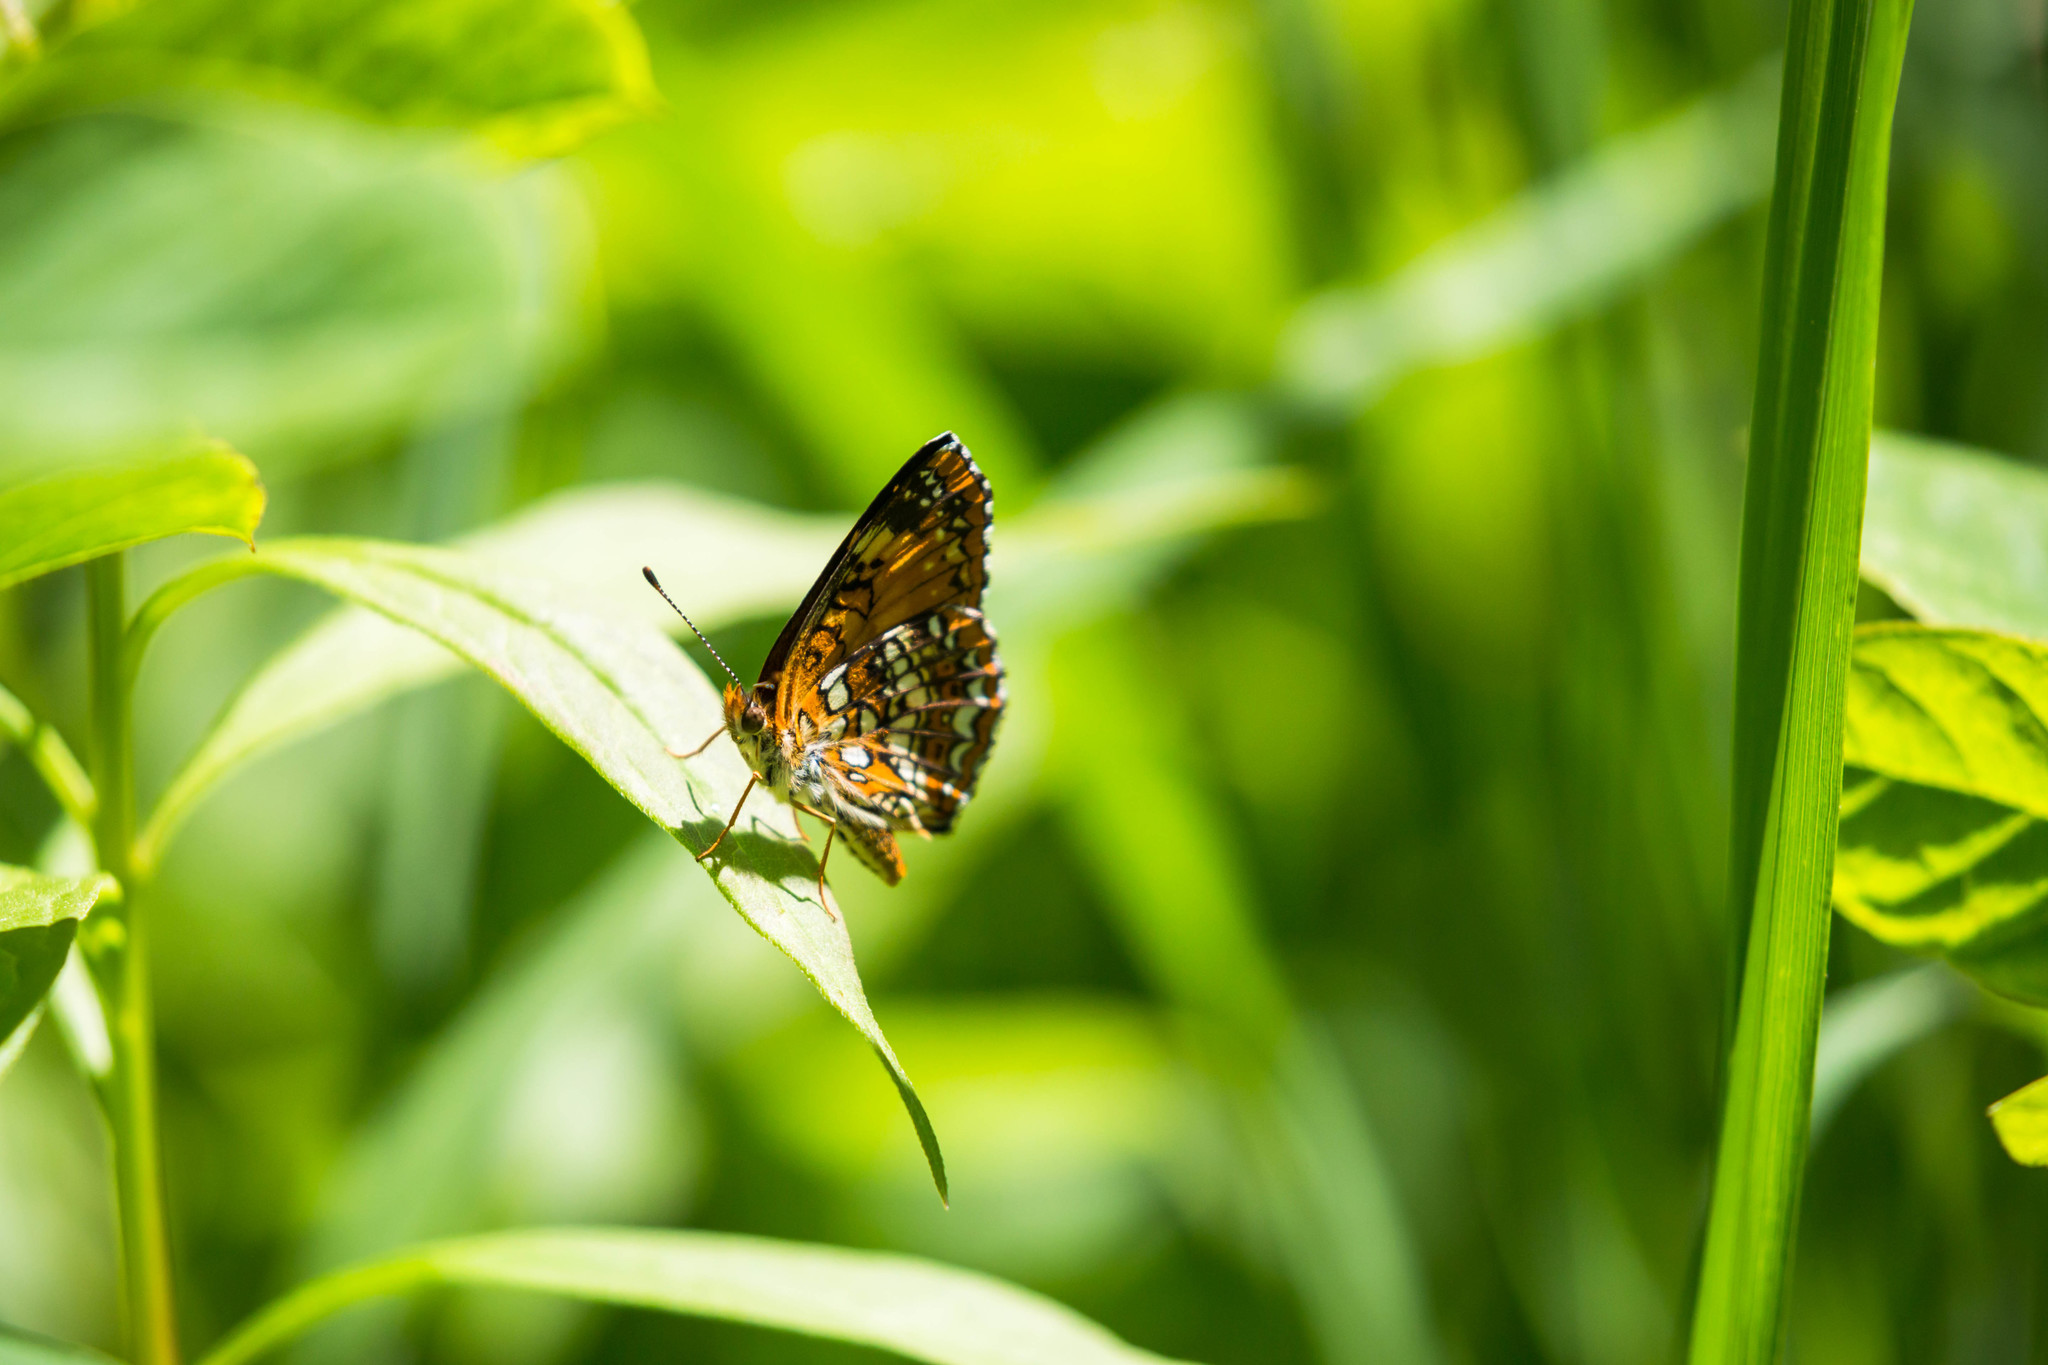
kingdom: Animalia
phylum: Arthropoda
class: Insecta
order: Lepidoptera
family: Nymphalidae
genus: Chlosyne
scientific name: Chlosyne harrisii
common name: Harris's checkerspot
